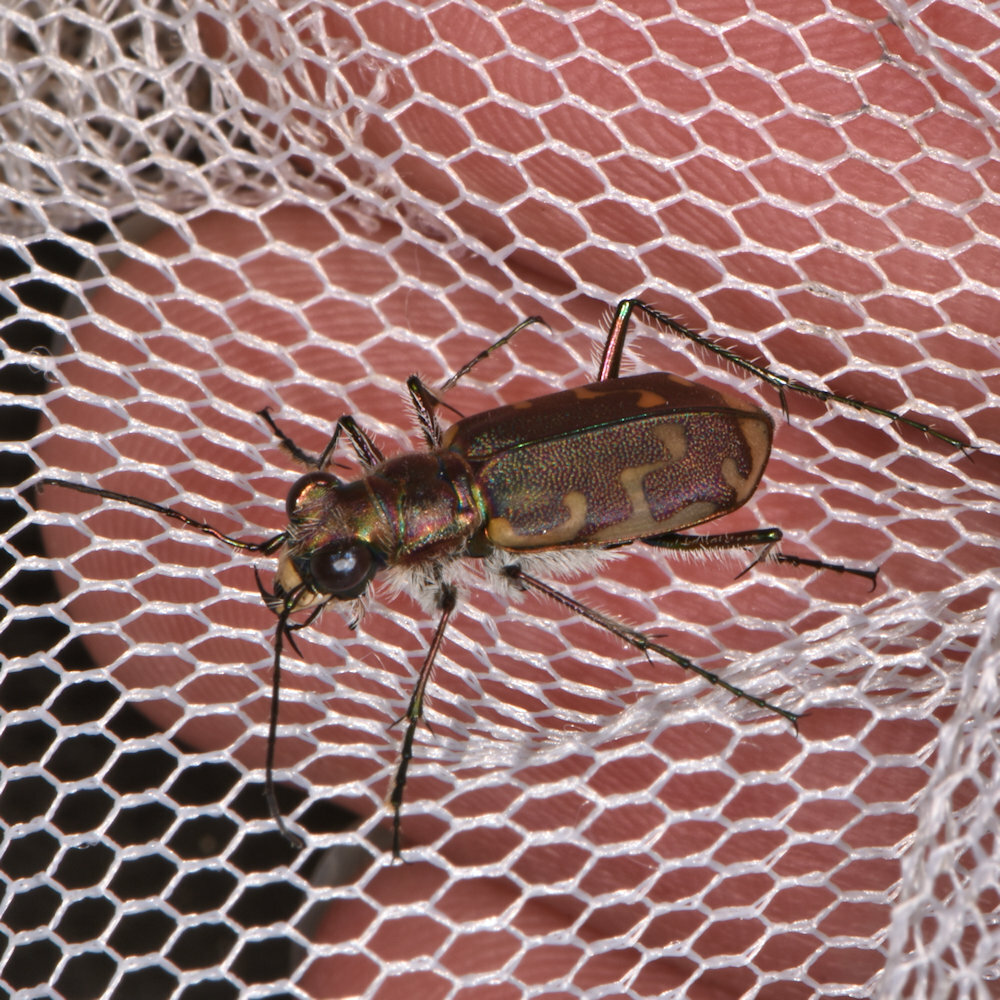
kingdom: Animalia
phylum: Arthropoda
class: Insecta
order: Coleoptera
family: Carabidae
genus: Cicindela
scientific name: Cicindela repanda
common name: Bronzed tiger beetle
